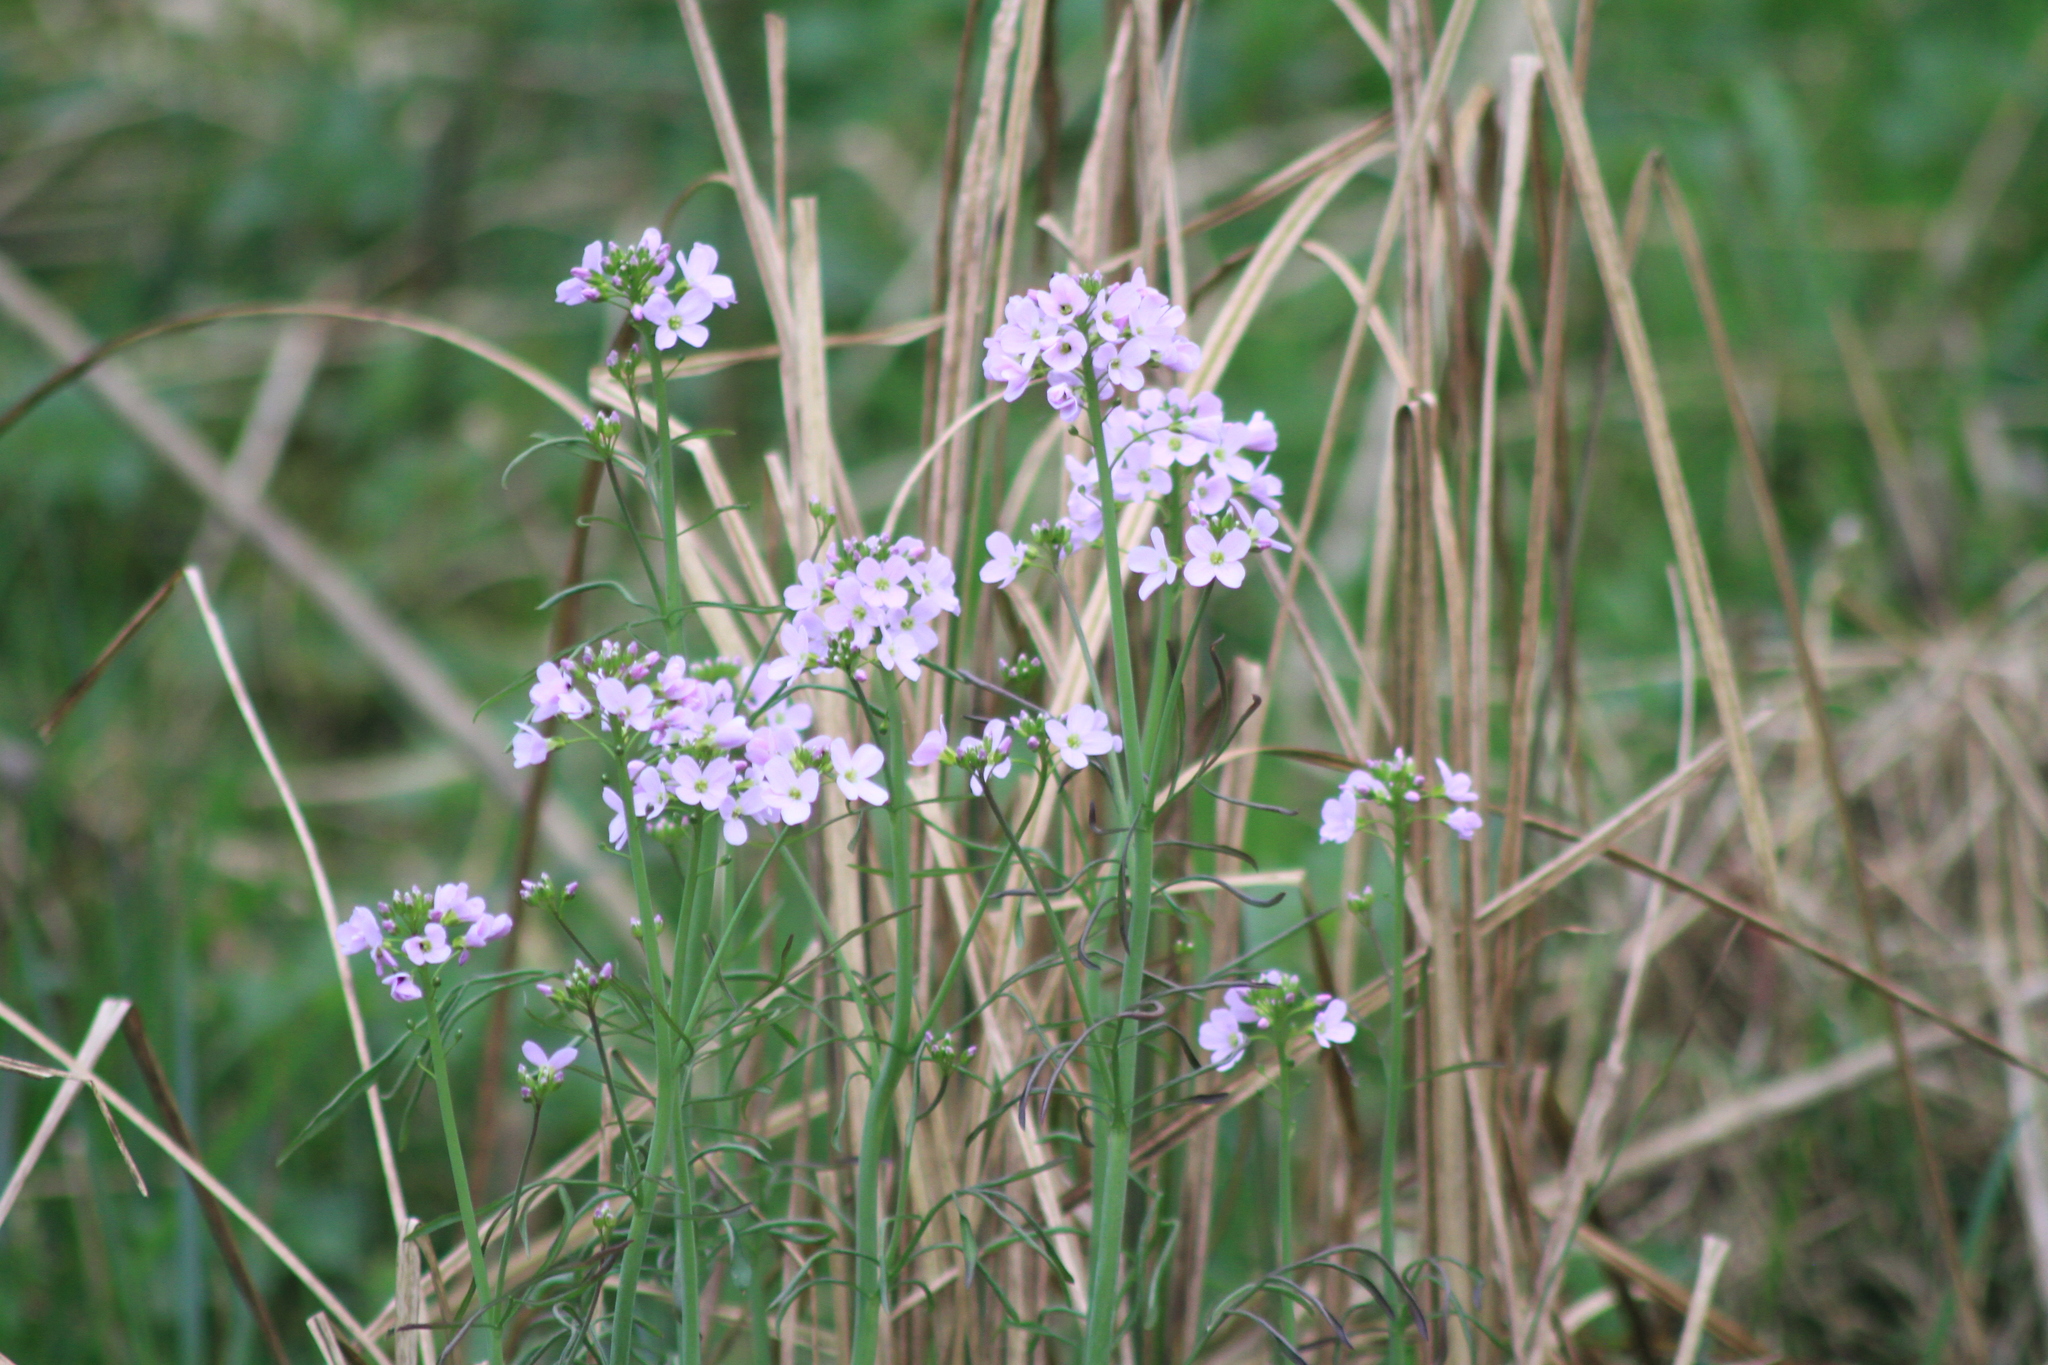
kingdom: Plantae
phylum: Tracheophyta
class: Magnoliopsida
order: Brassicales
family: Brassicaceae
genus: Cardamine
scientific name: Cardamine pratensis
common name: Cuckoo flower
